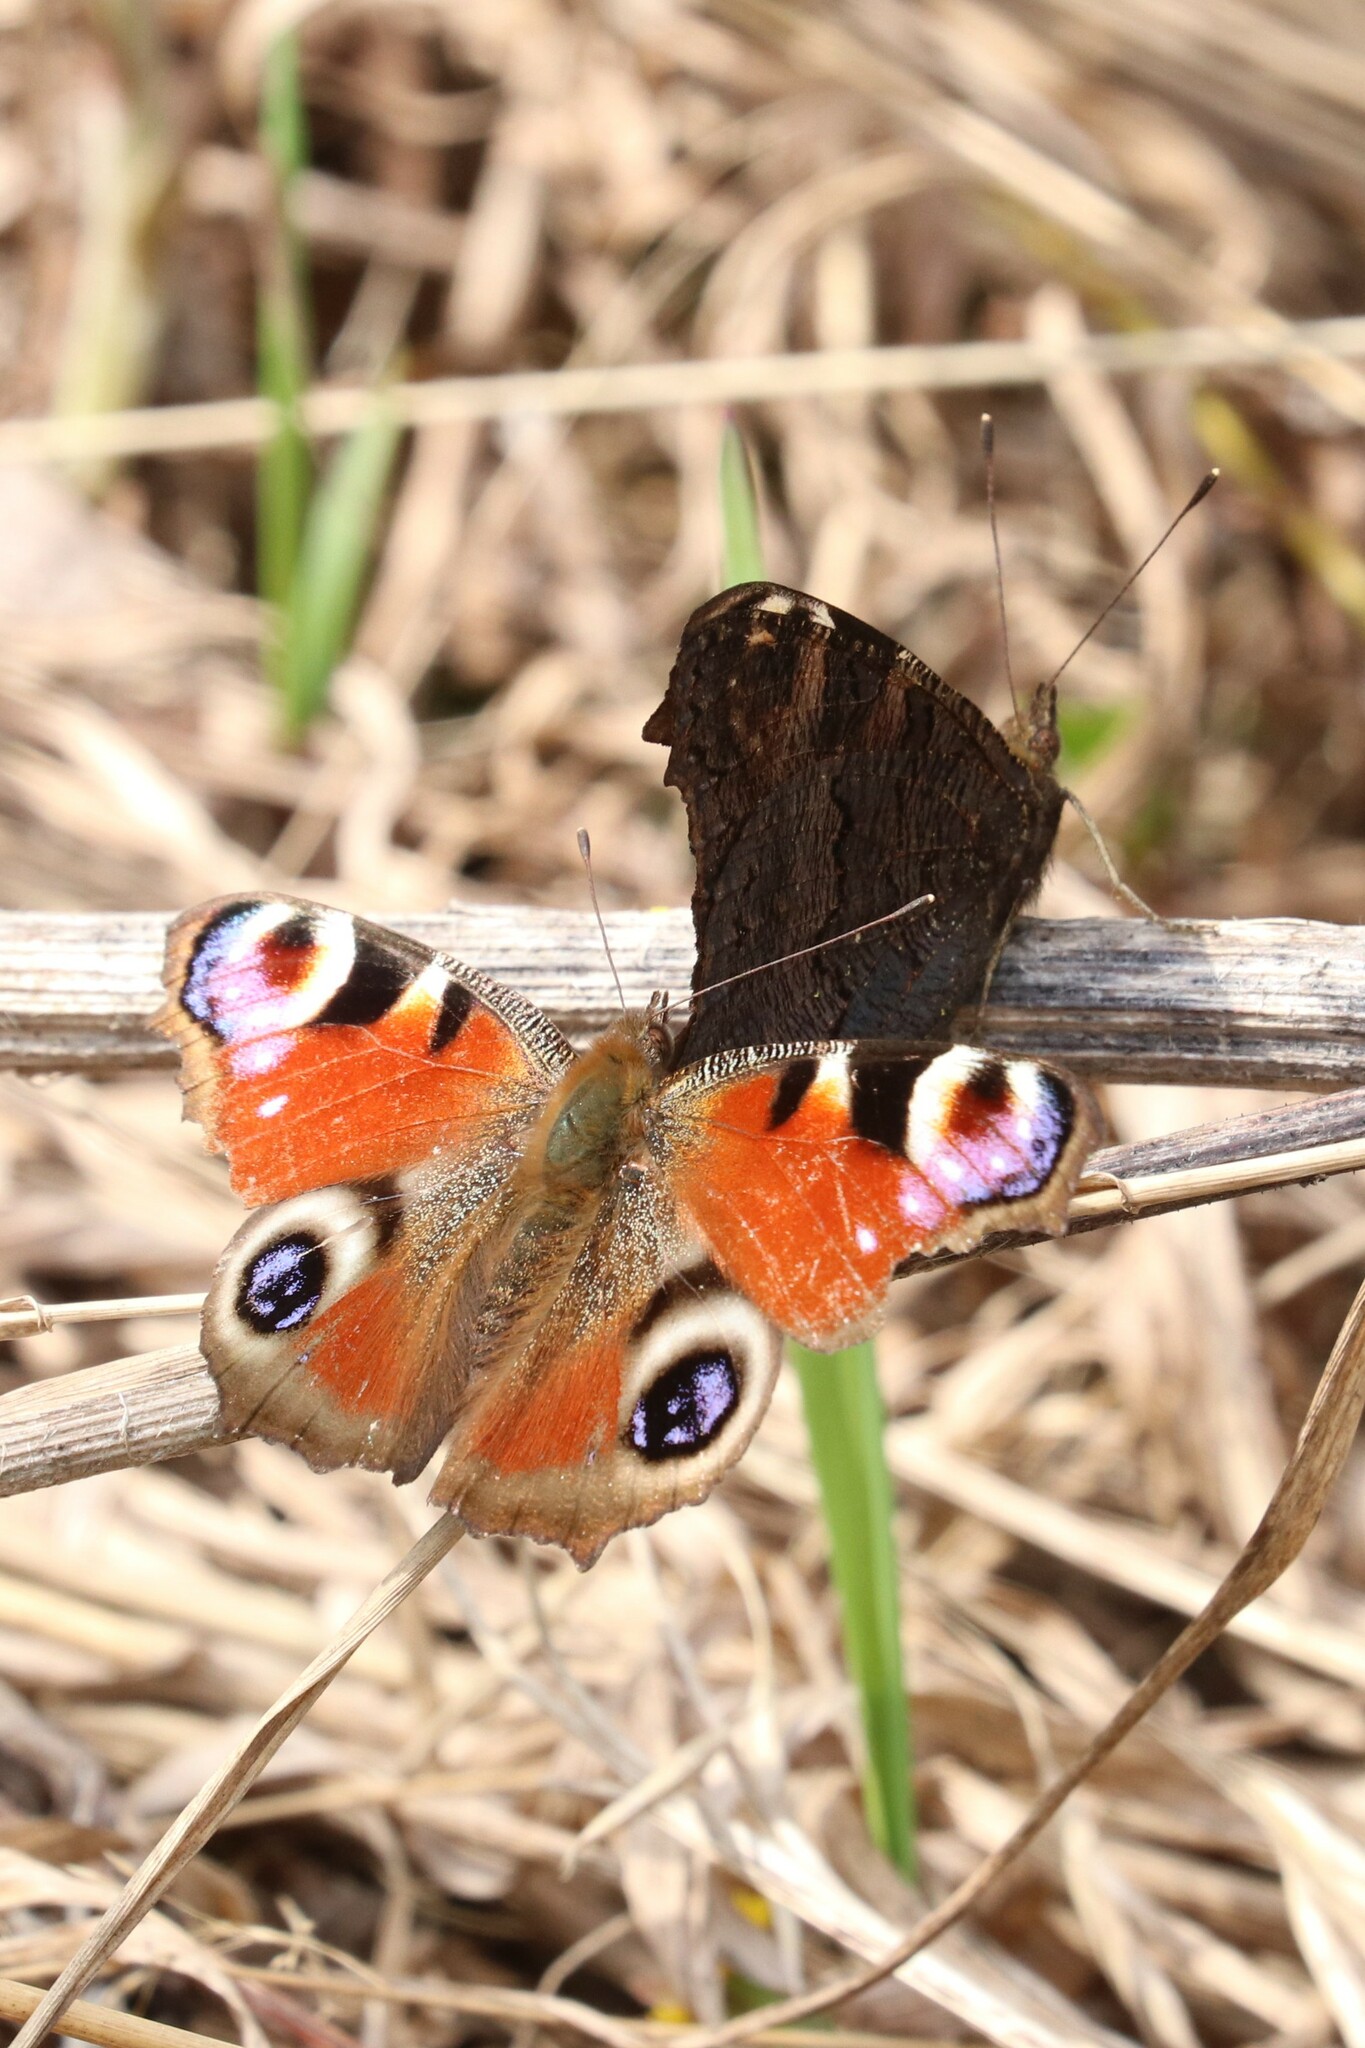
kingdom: Animalia
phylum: Arthropoda
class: Insecta
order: Lepidoptera
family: Nymphalidae
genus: Aglais
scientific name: Aglais io
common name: Peacock
